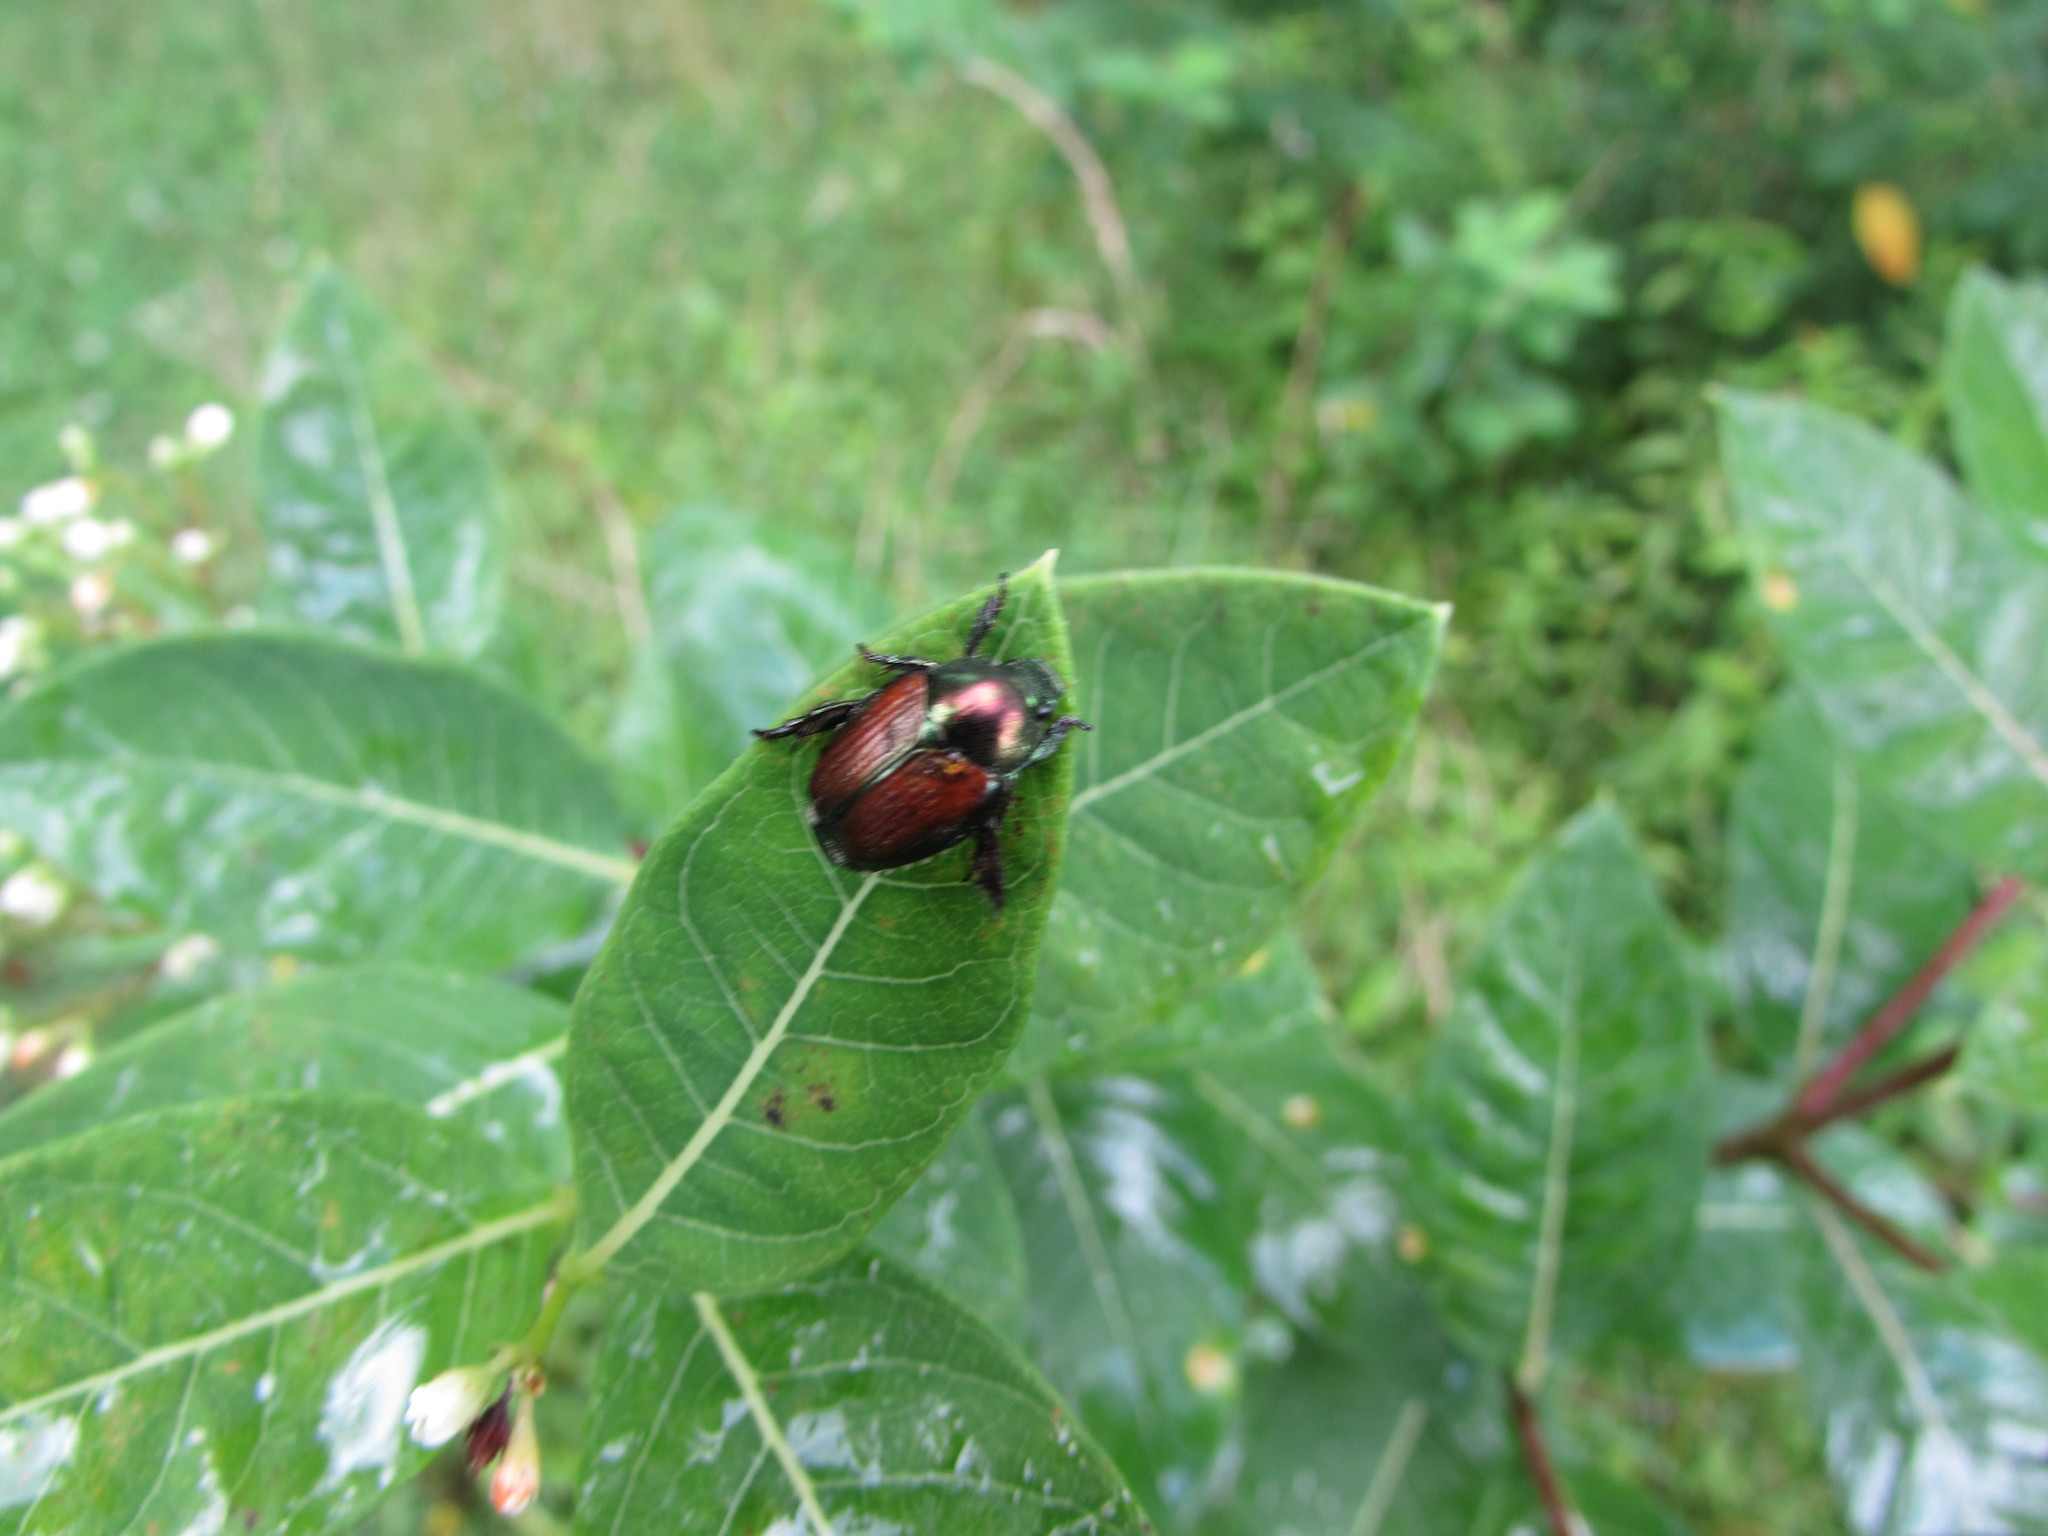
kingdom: Animalia
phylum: Arthropoda
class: Insecta
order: Coleoptera
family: Scarabaeidae
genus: Popillia
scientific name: Popillia japonica
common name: Japanese beetle
